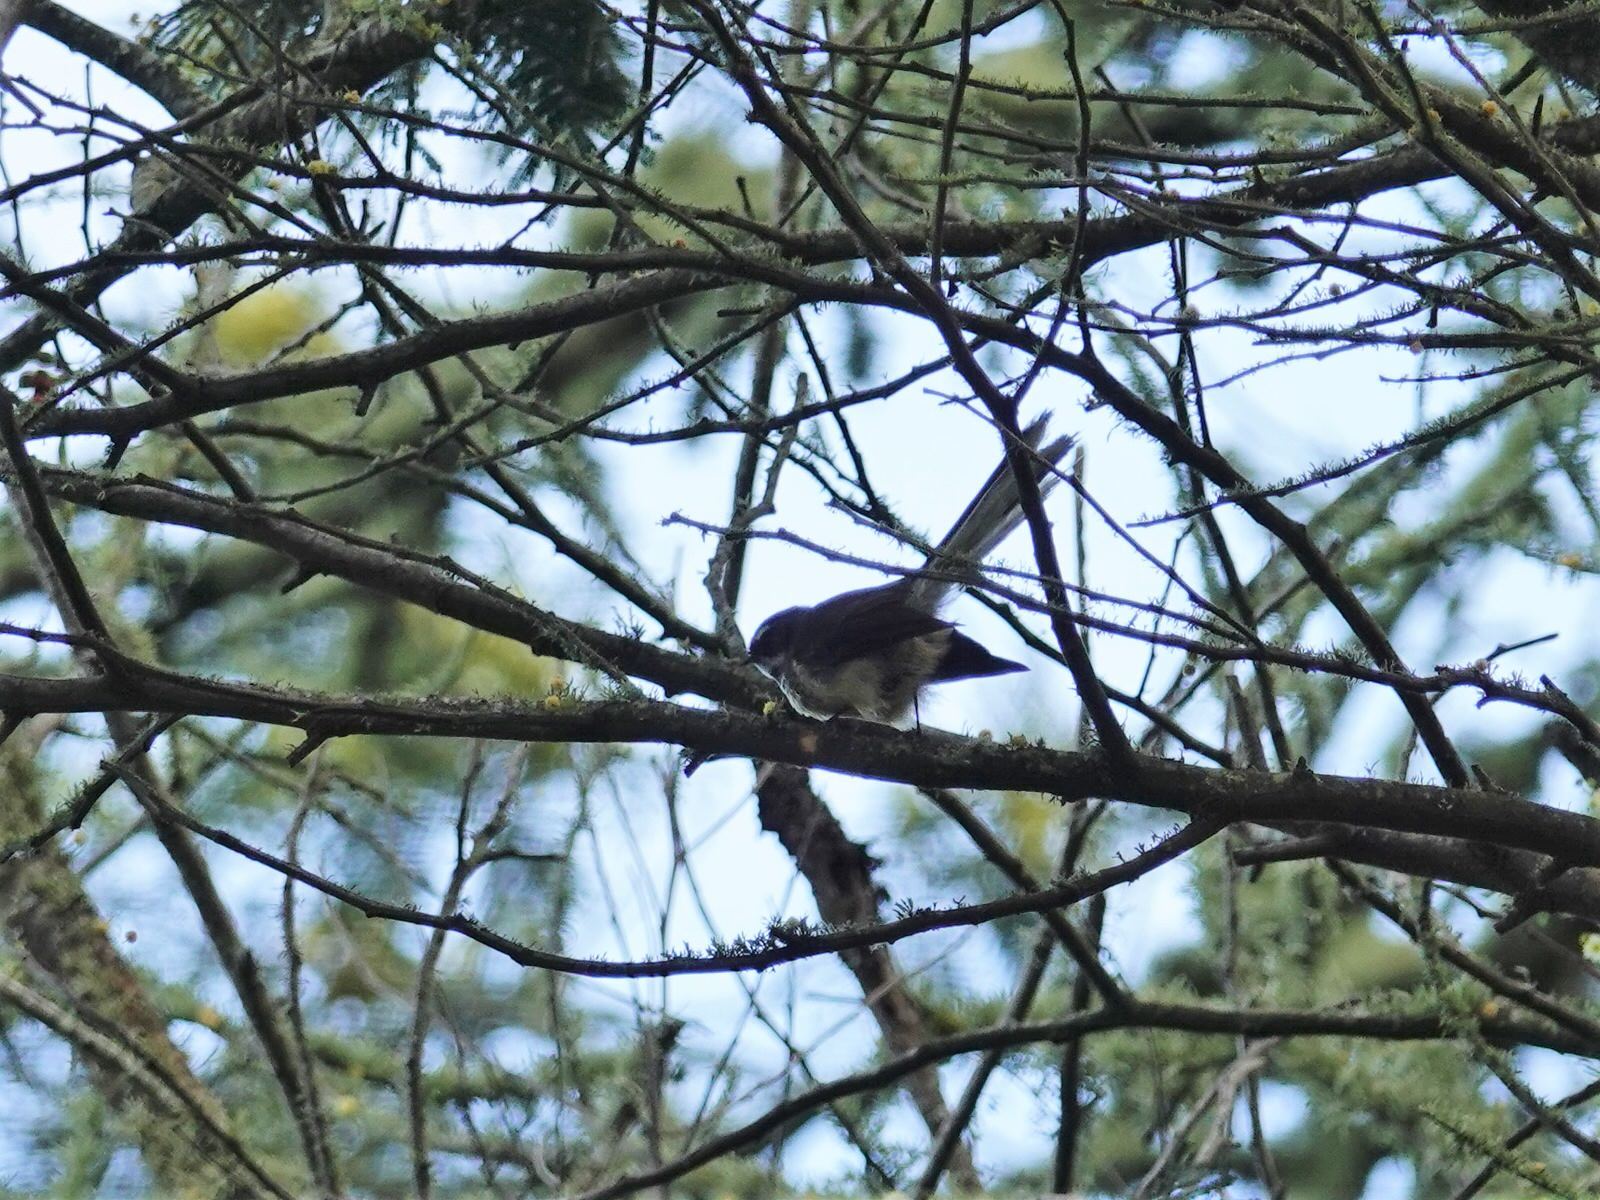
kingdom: Animalia
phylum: Chordata
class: Aves
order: Passeriformes
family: Rhipiduridae
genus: Rhipidura
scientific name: Rhipidura fuliginosa
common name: New zealand fantail
